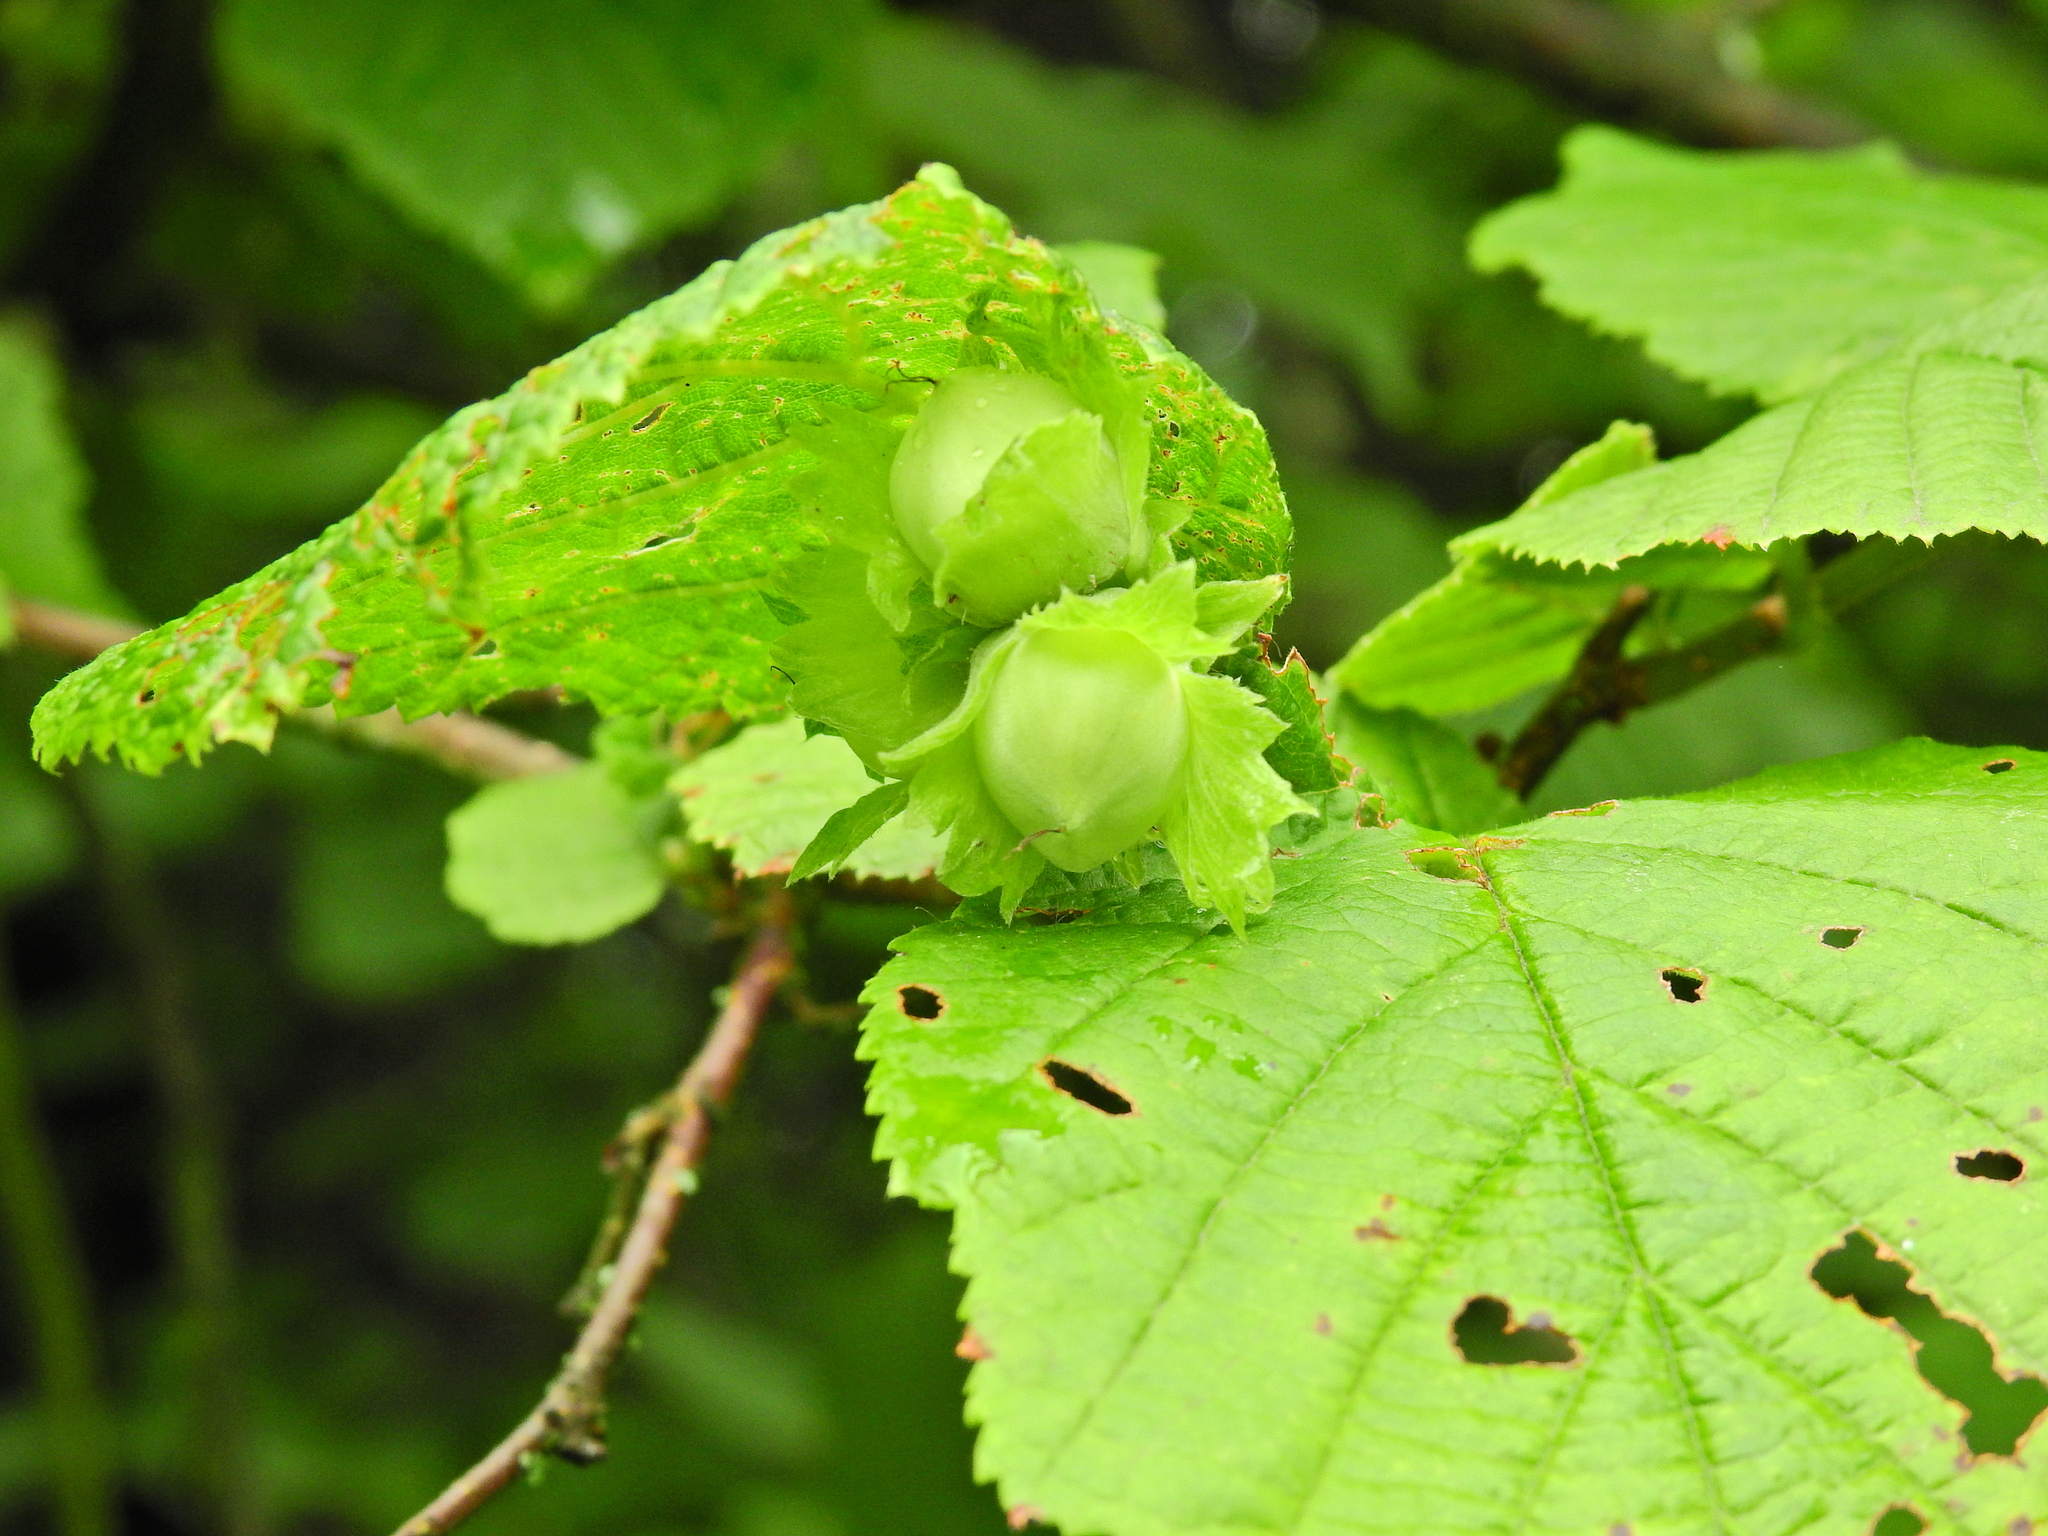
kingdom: Plantae
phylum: Tracheophyta
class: Magnoliopsida
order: Fagales
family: Betulaceae
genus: Corylus
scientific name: Corylus avellana
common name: European hazel
